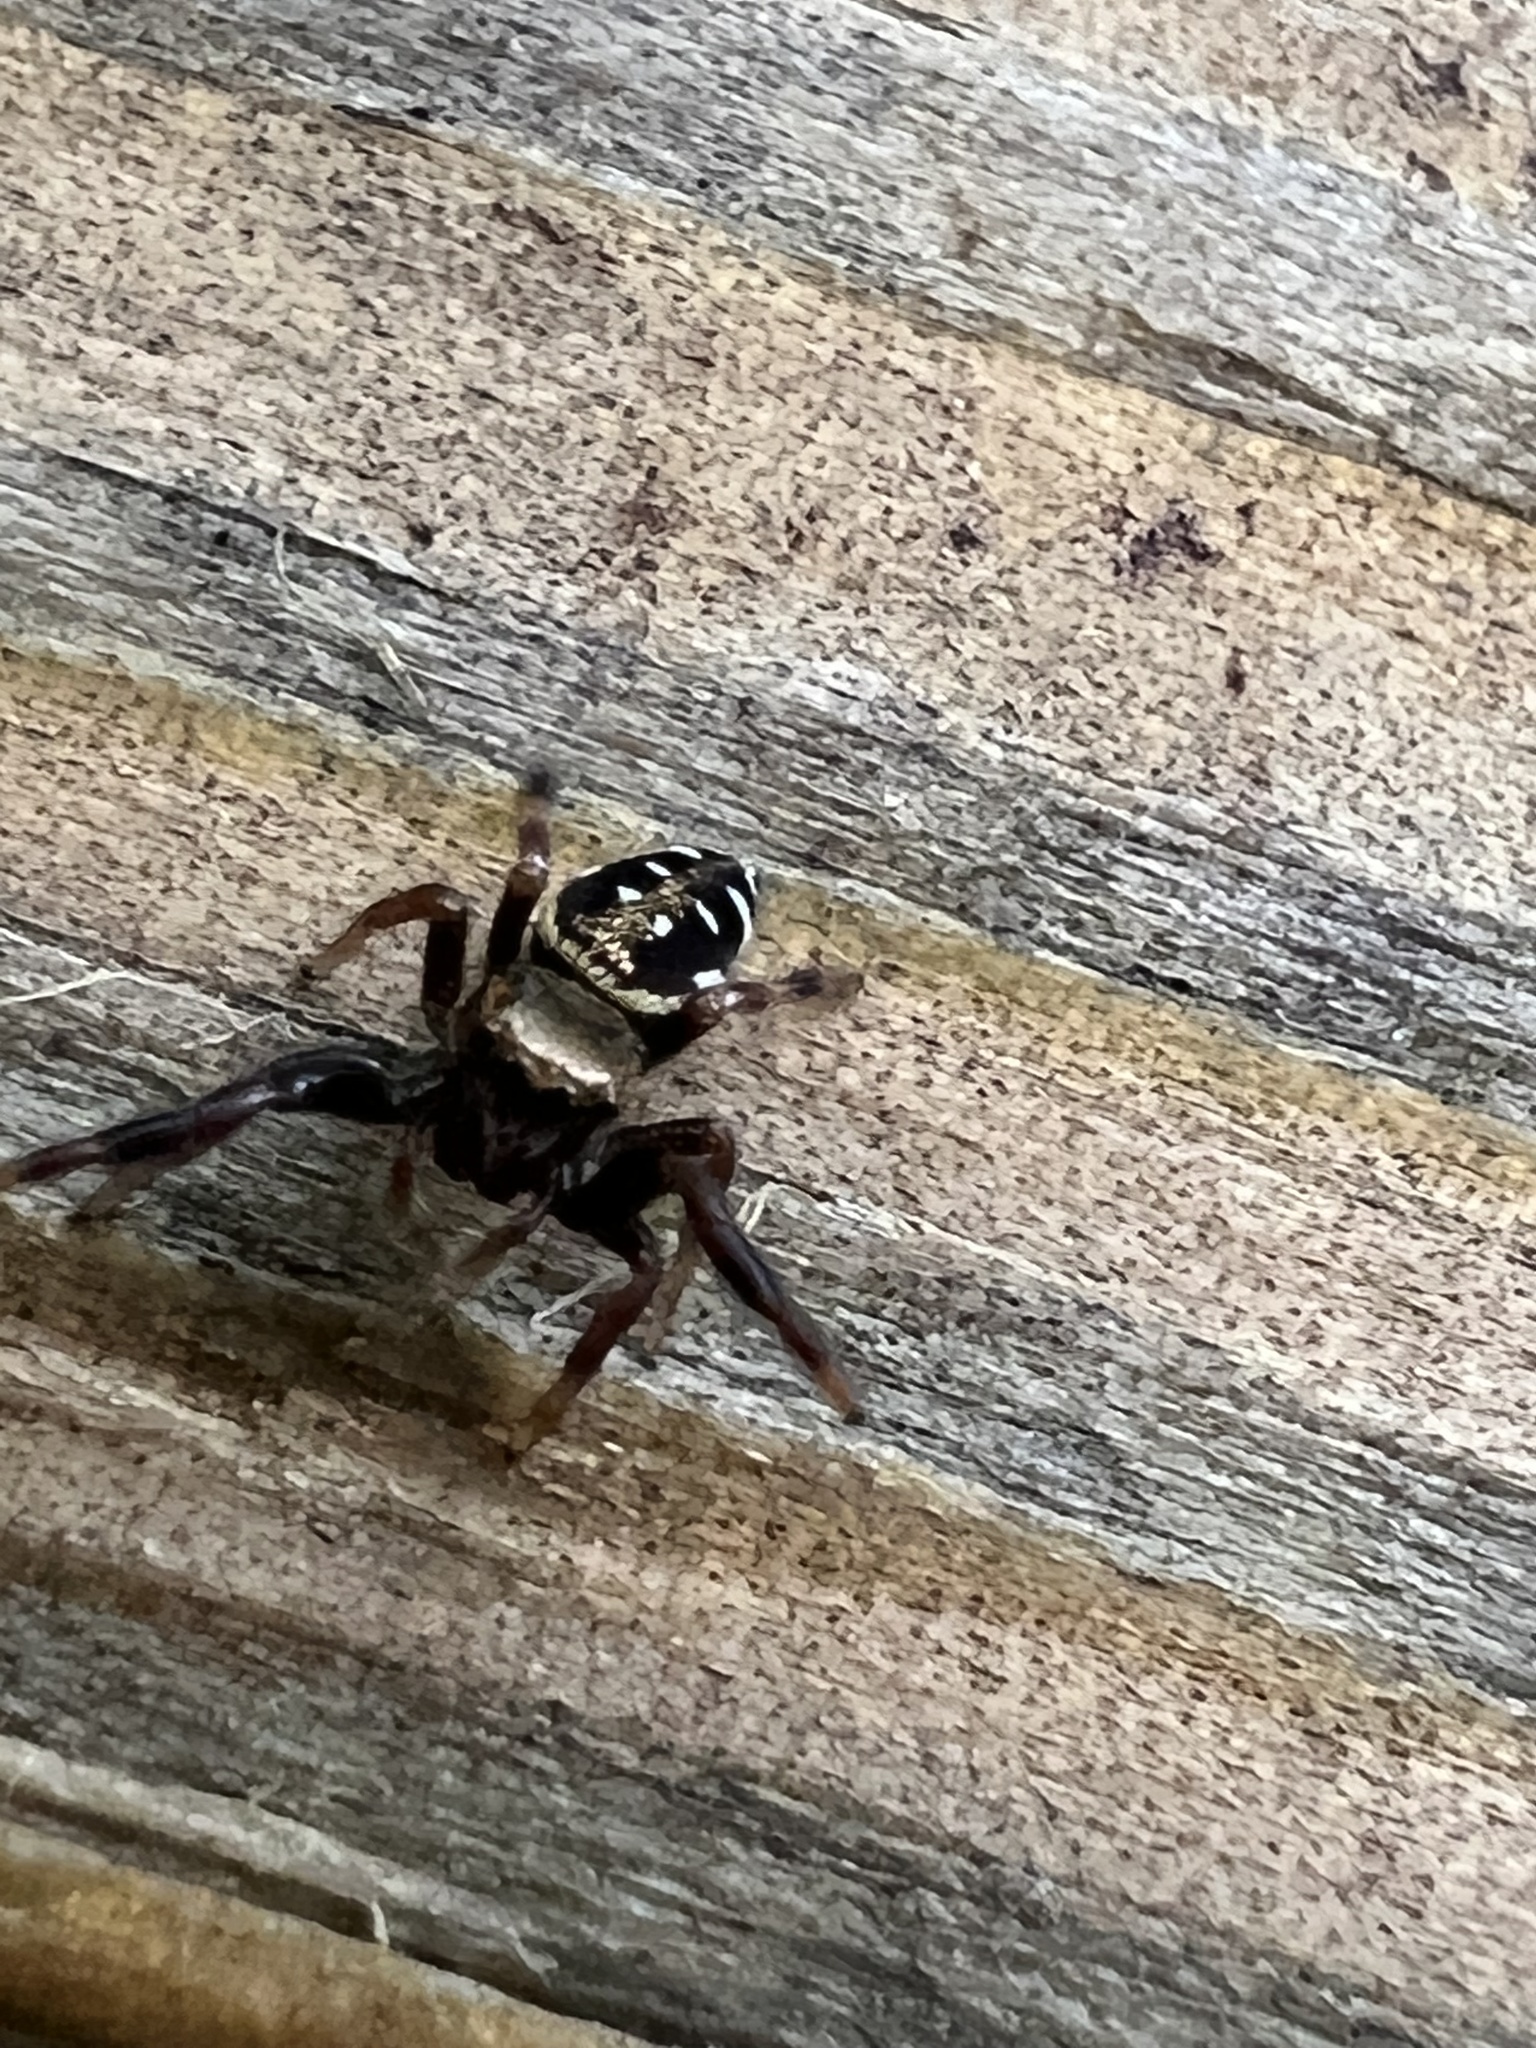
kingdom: Animalia
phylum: Arthropoda
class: Arachnida
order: Araneae
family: Salticidae
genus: Paraphidippus
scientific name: Paraphidippus aurantius
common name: Jumping spiders
